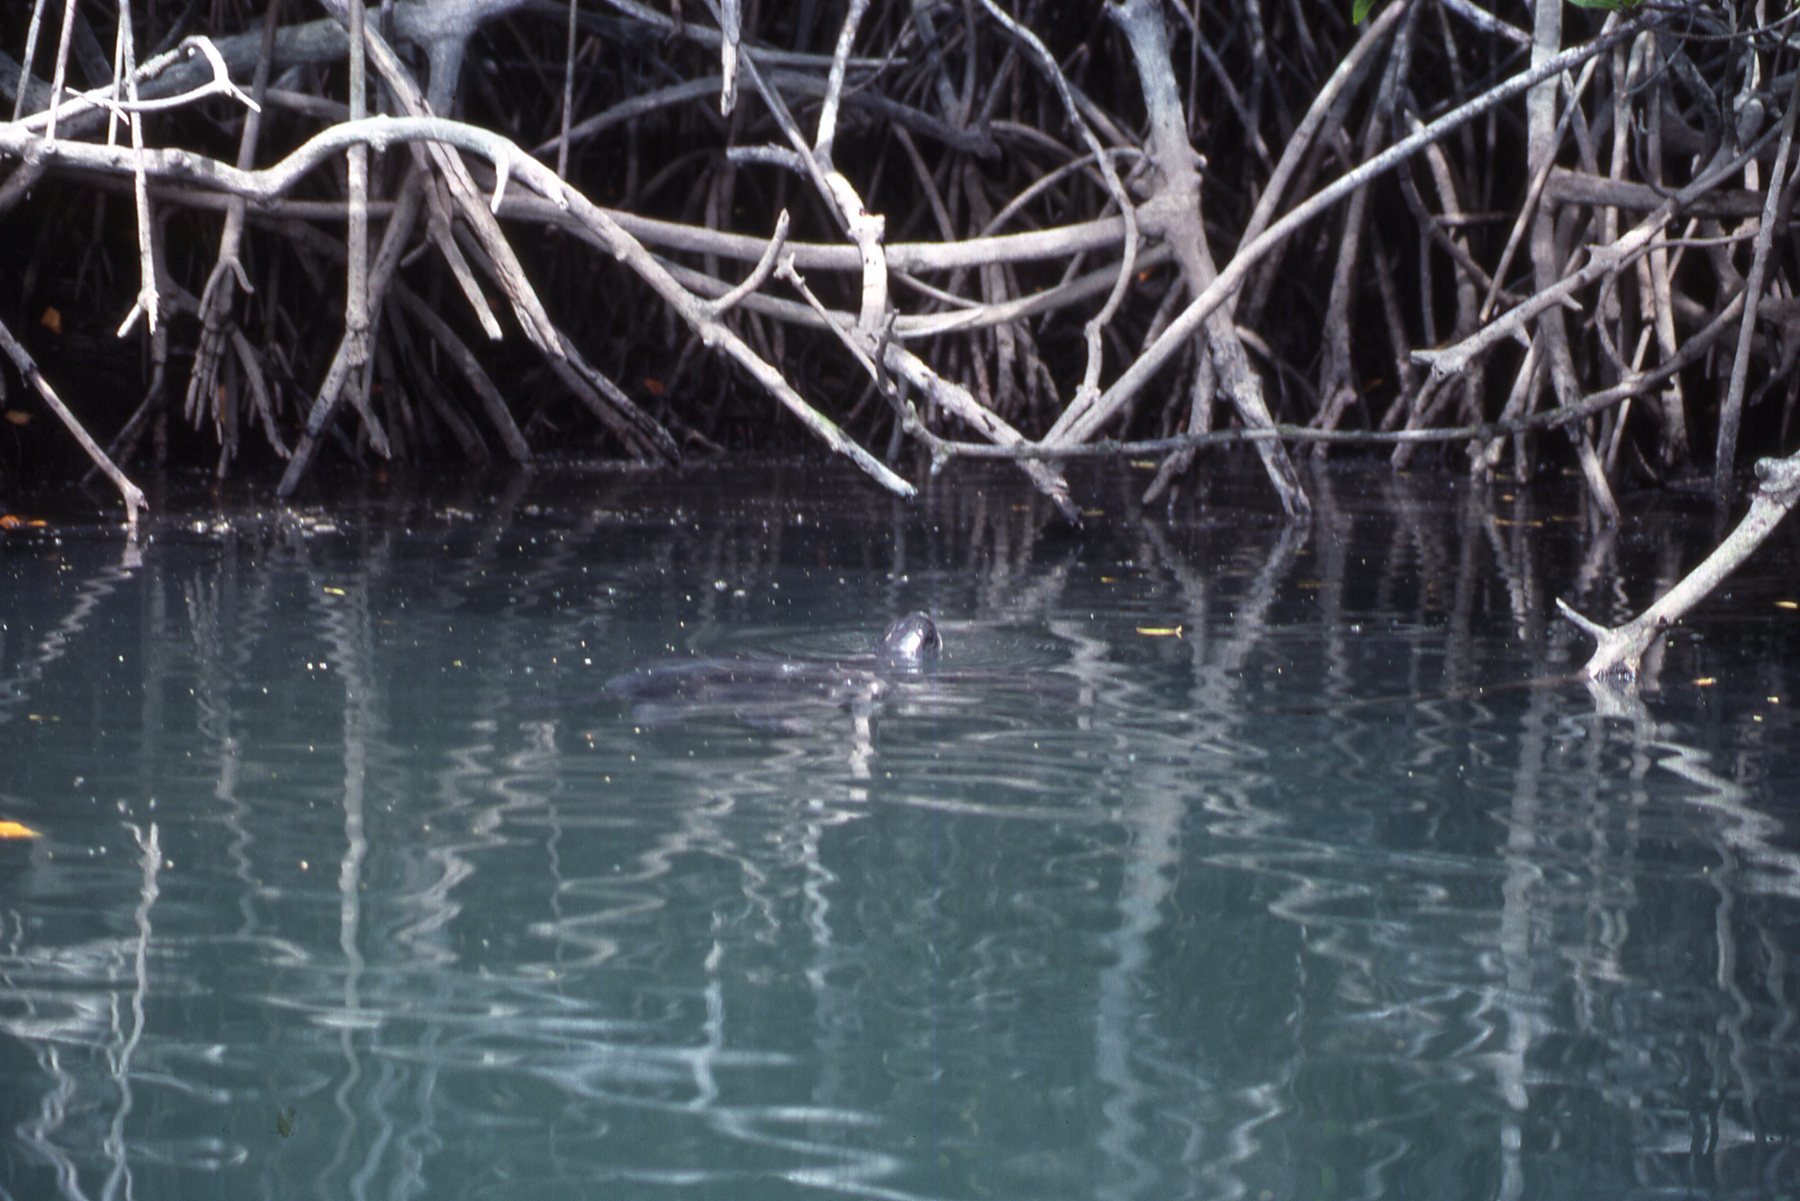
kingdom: Animalia
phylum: Chordata
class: Testudines
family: Cheloniidae
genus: Chelonia
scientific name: Chelonia mydas
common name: Green turtle
